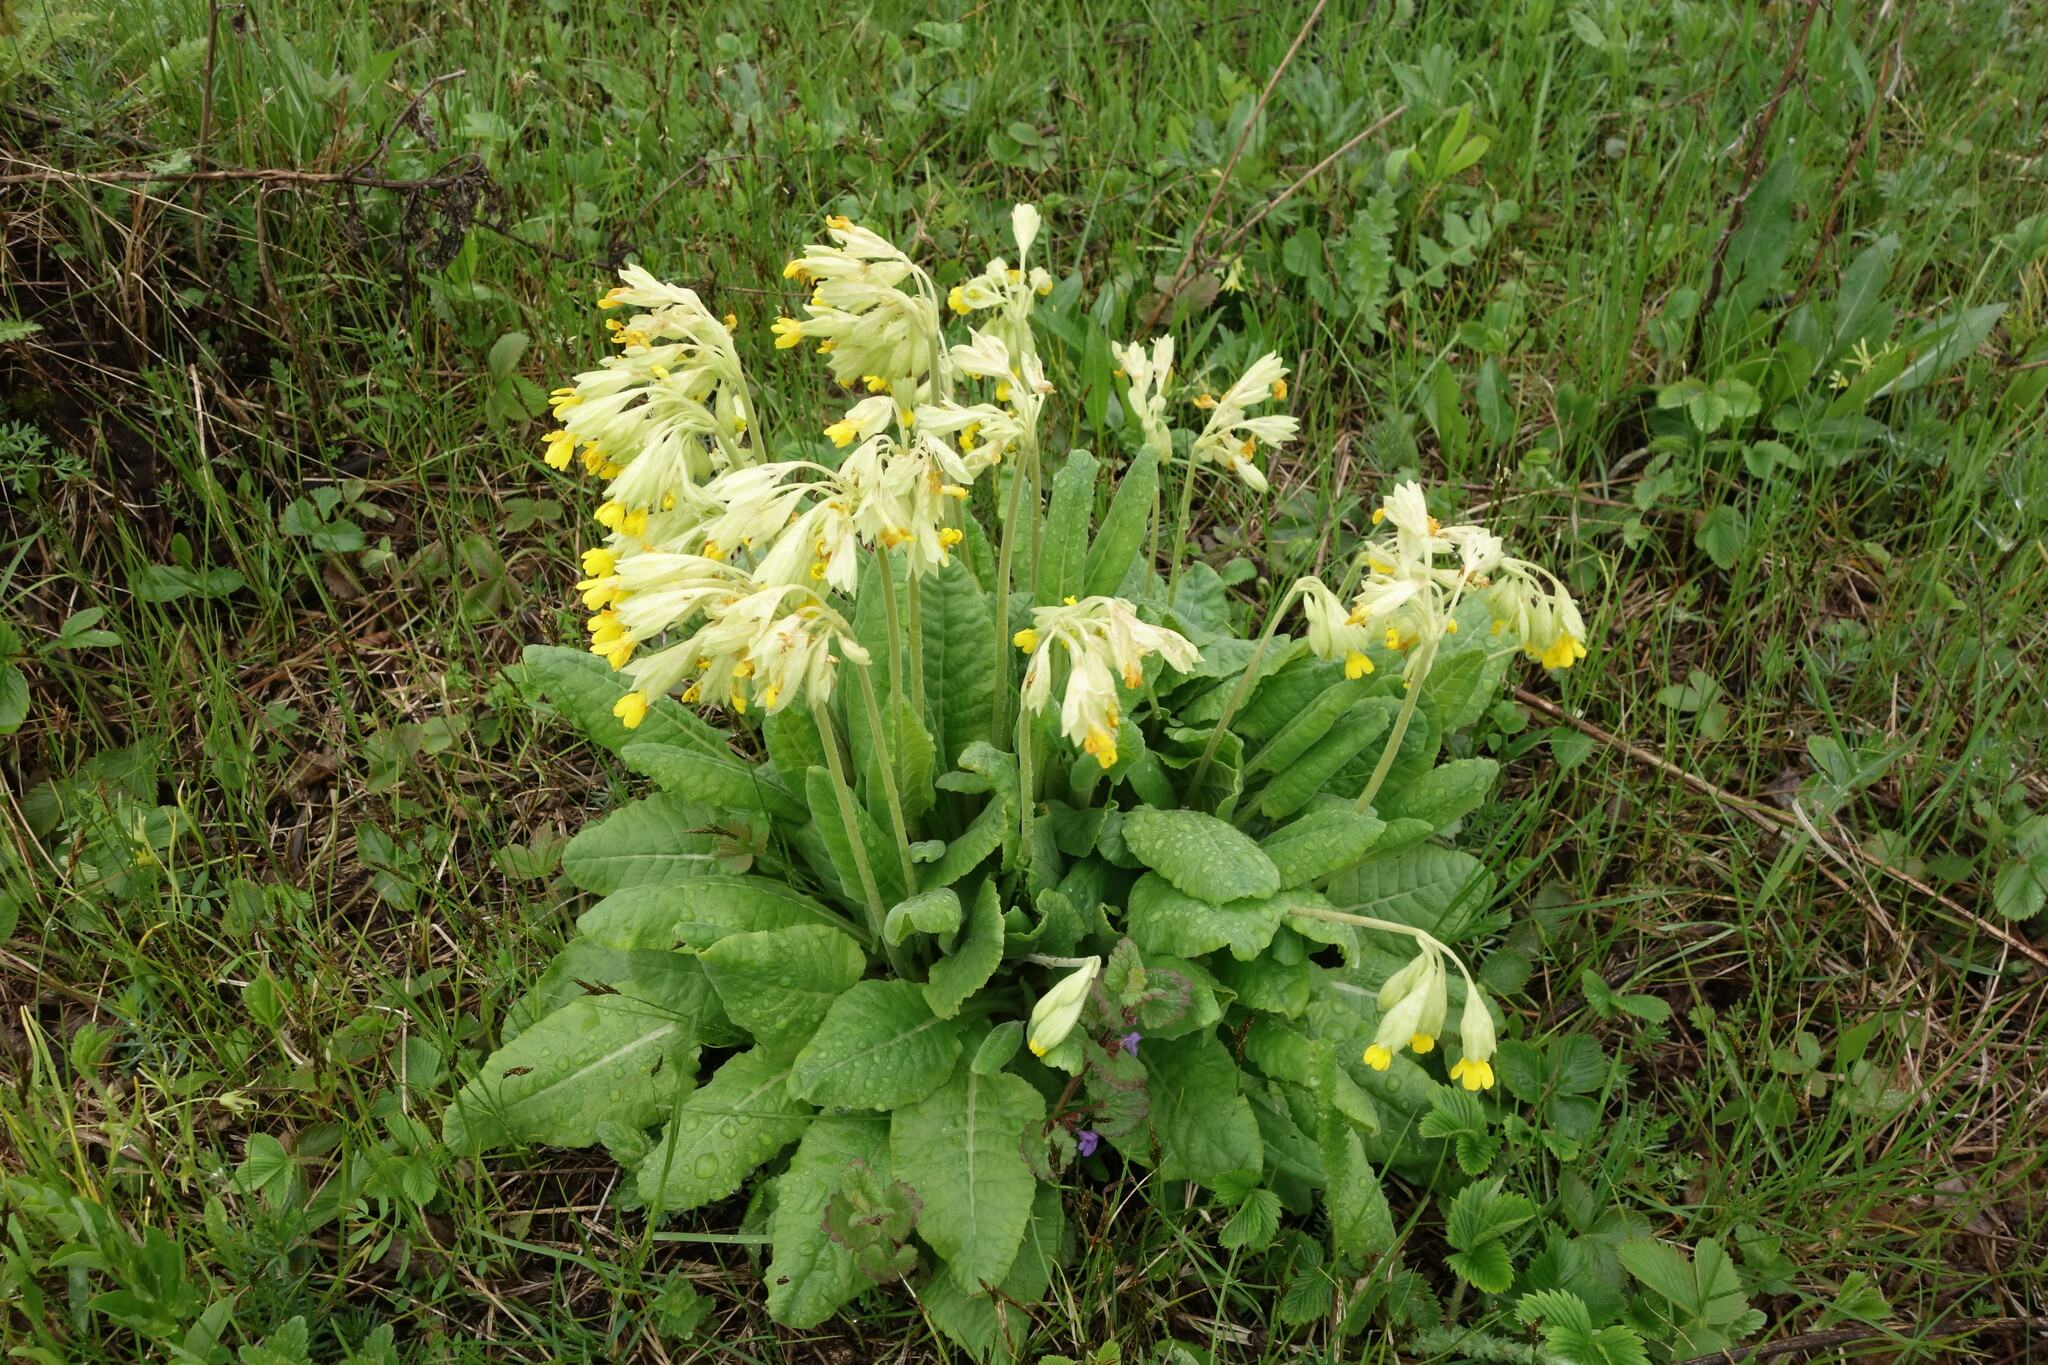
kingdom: Plantae
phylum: Tracheophyta
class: Magnoliopsida
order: Ericales
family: Primulaceae
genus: Primula
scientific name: Primula veris
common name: Cowslip
